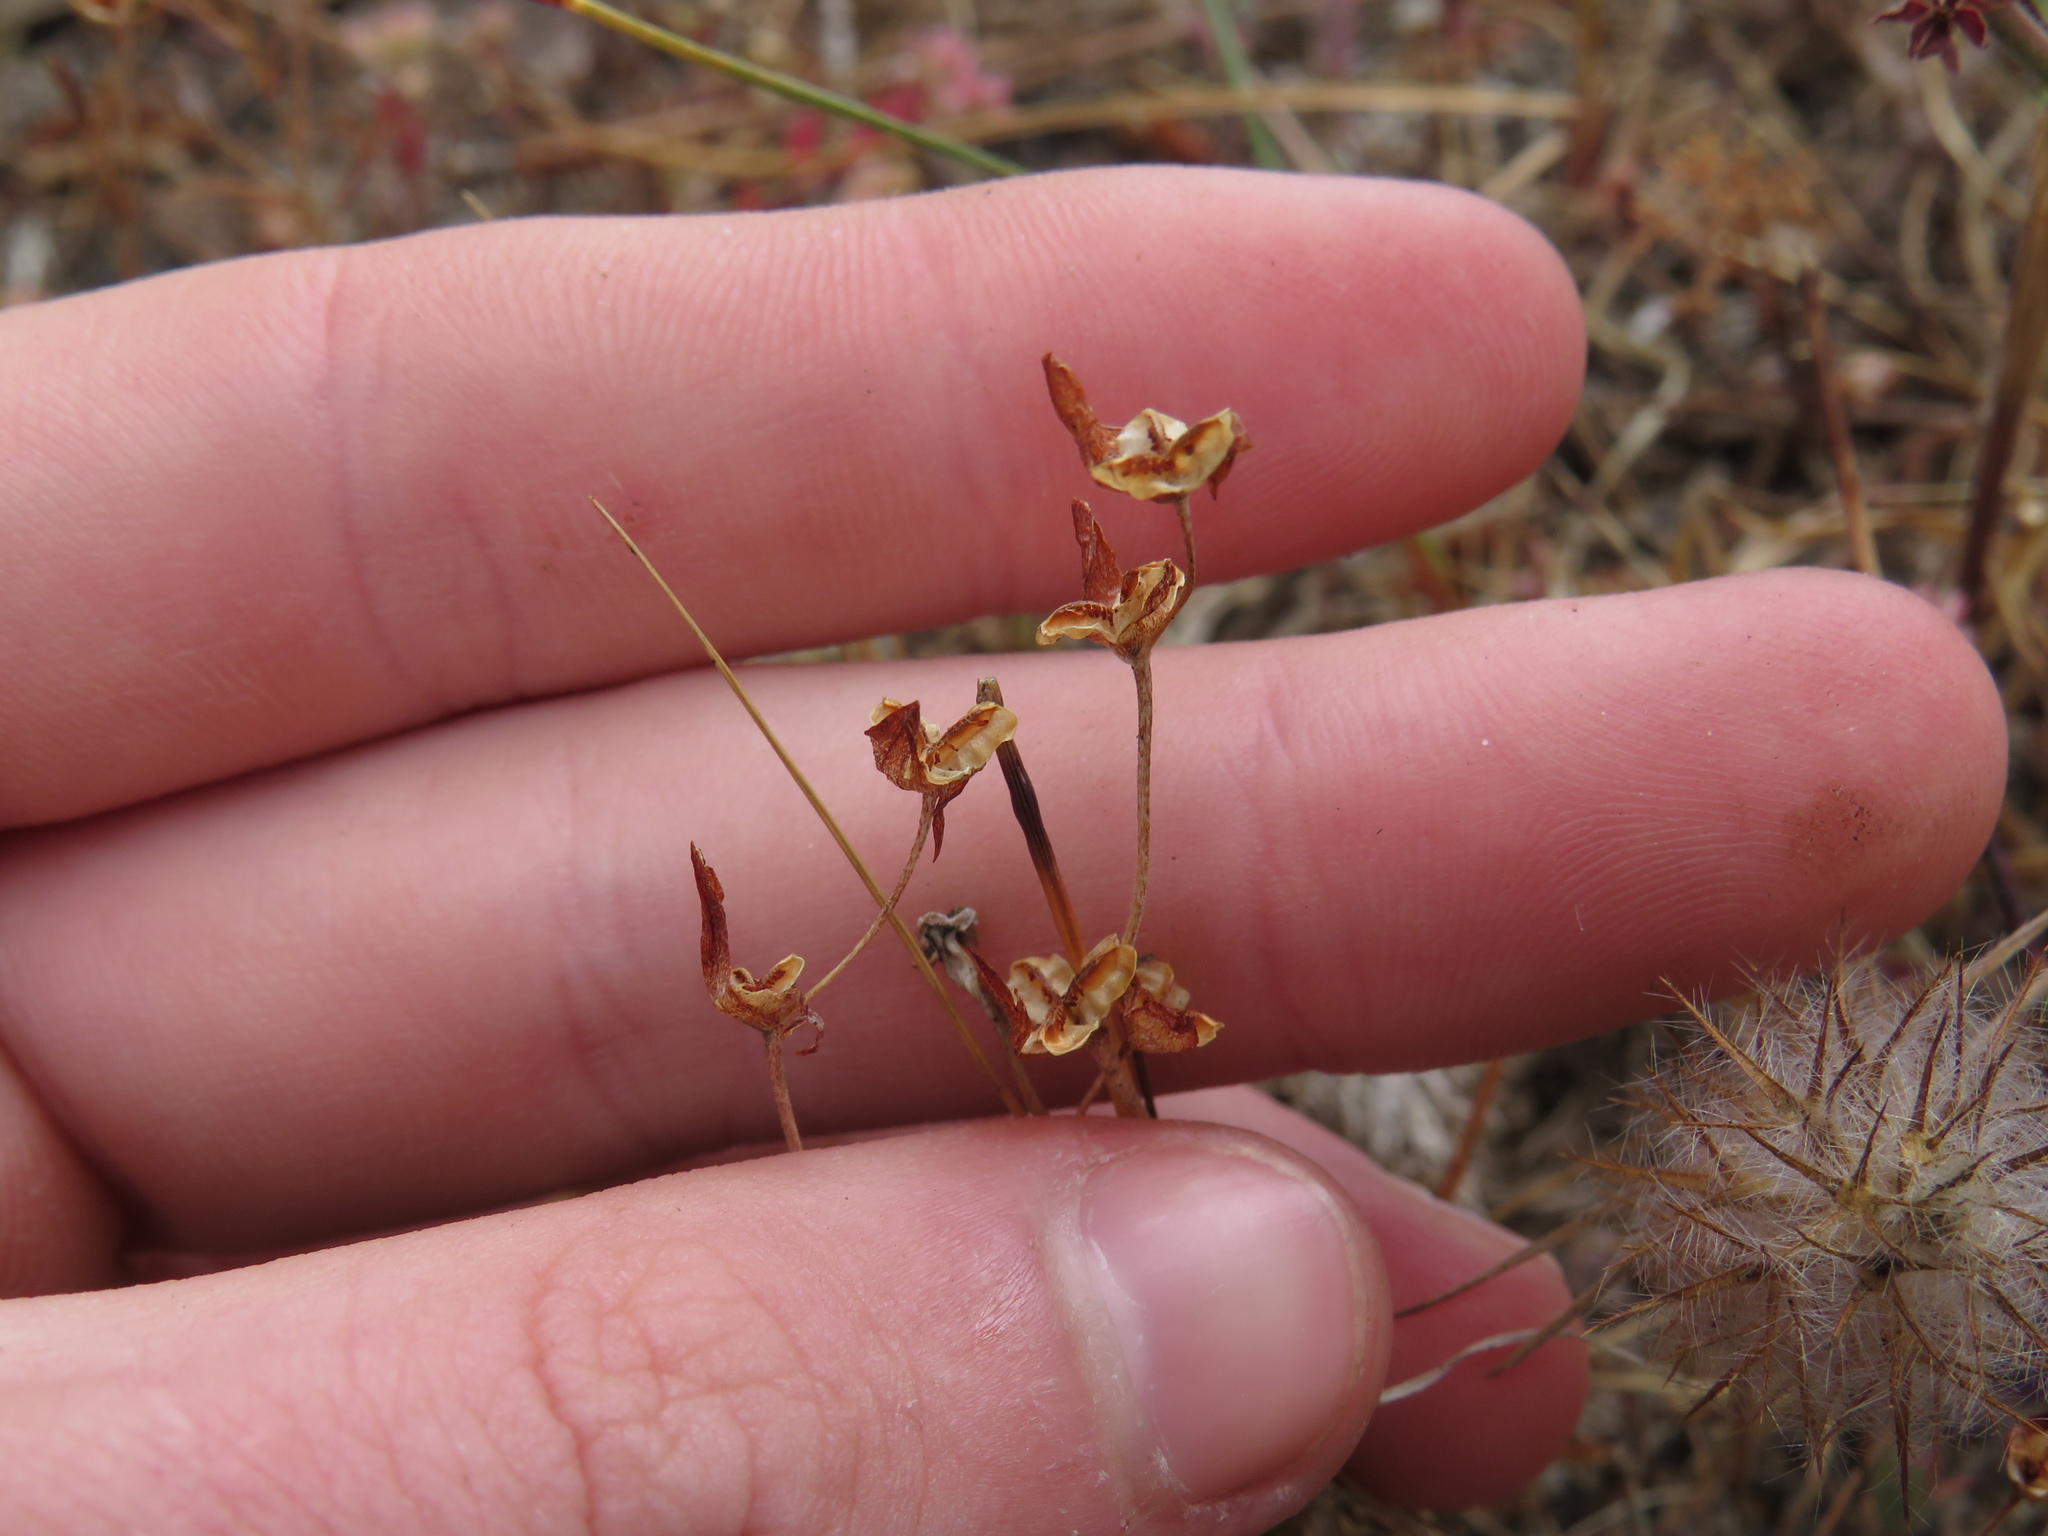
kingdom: Plantae
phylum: Tracheophyta
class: Liliopsida
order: Asparagales
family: Iridaceae
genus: Geissorhiza
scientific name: Geissorhiza aspera
